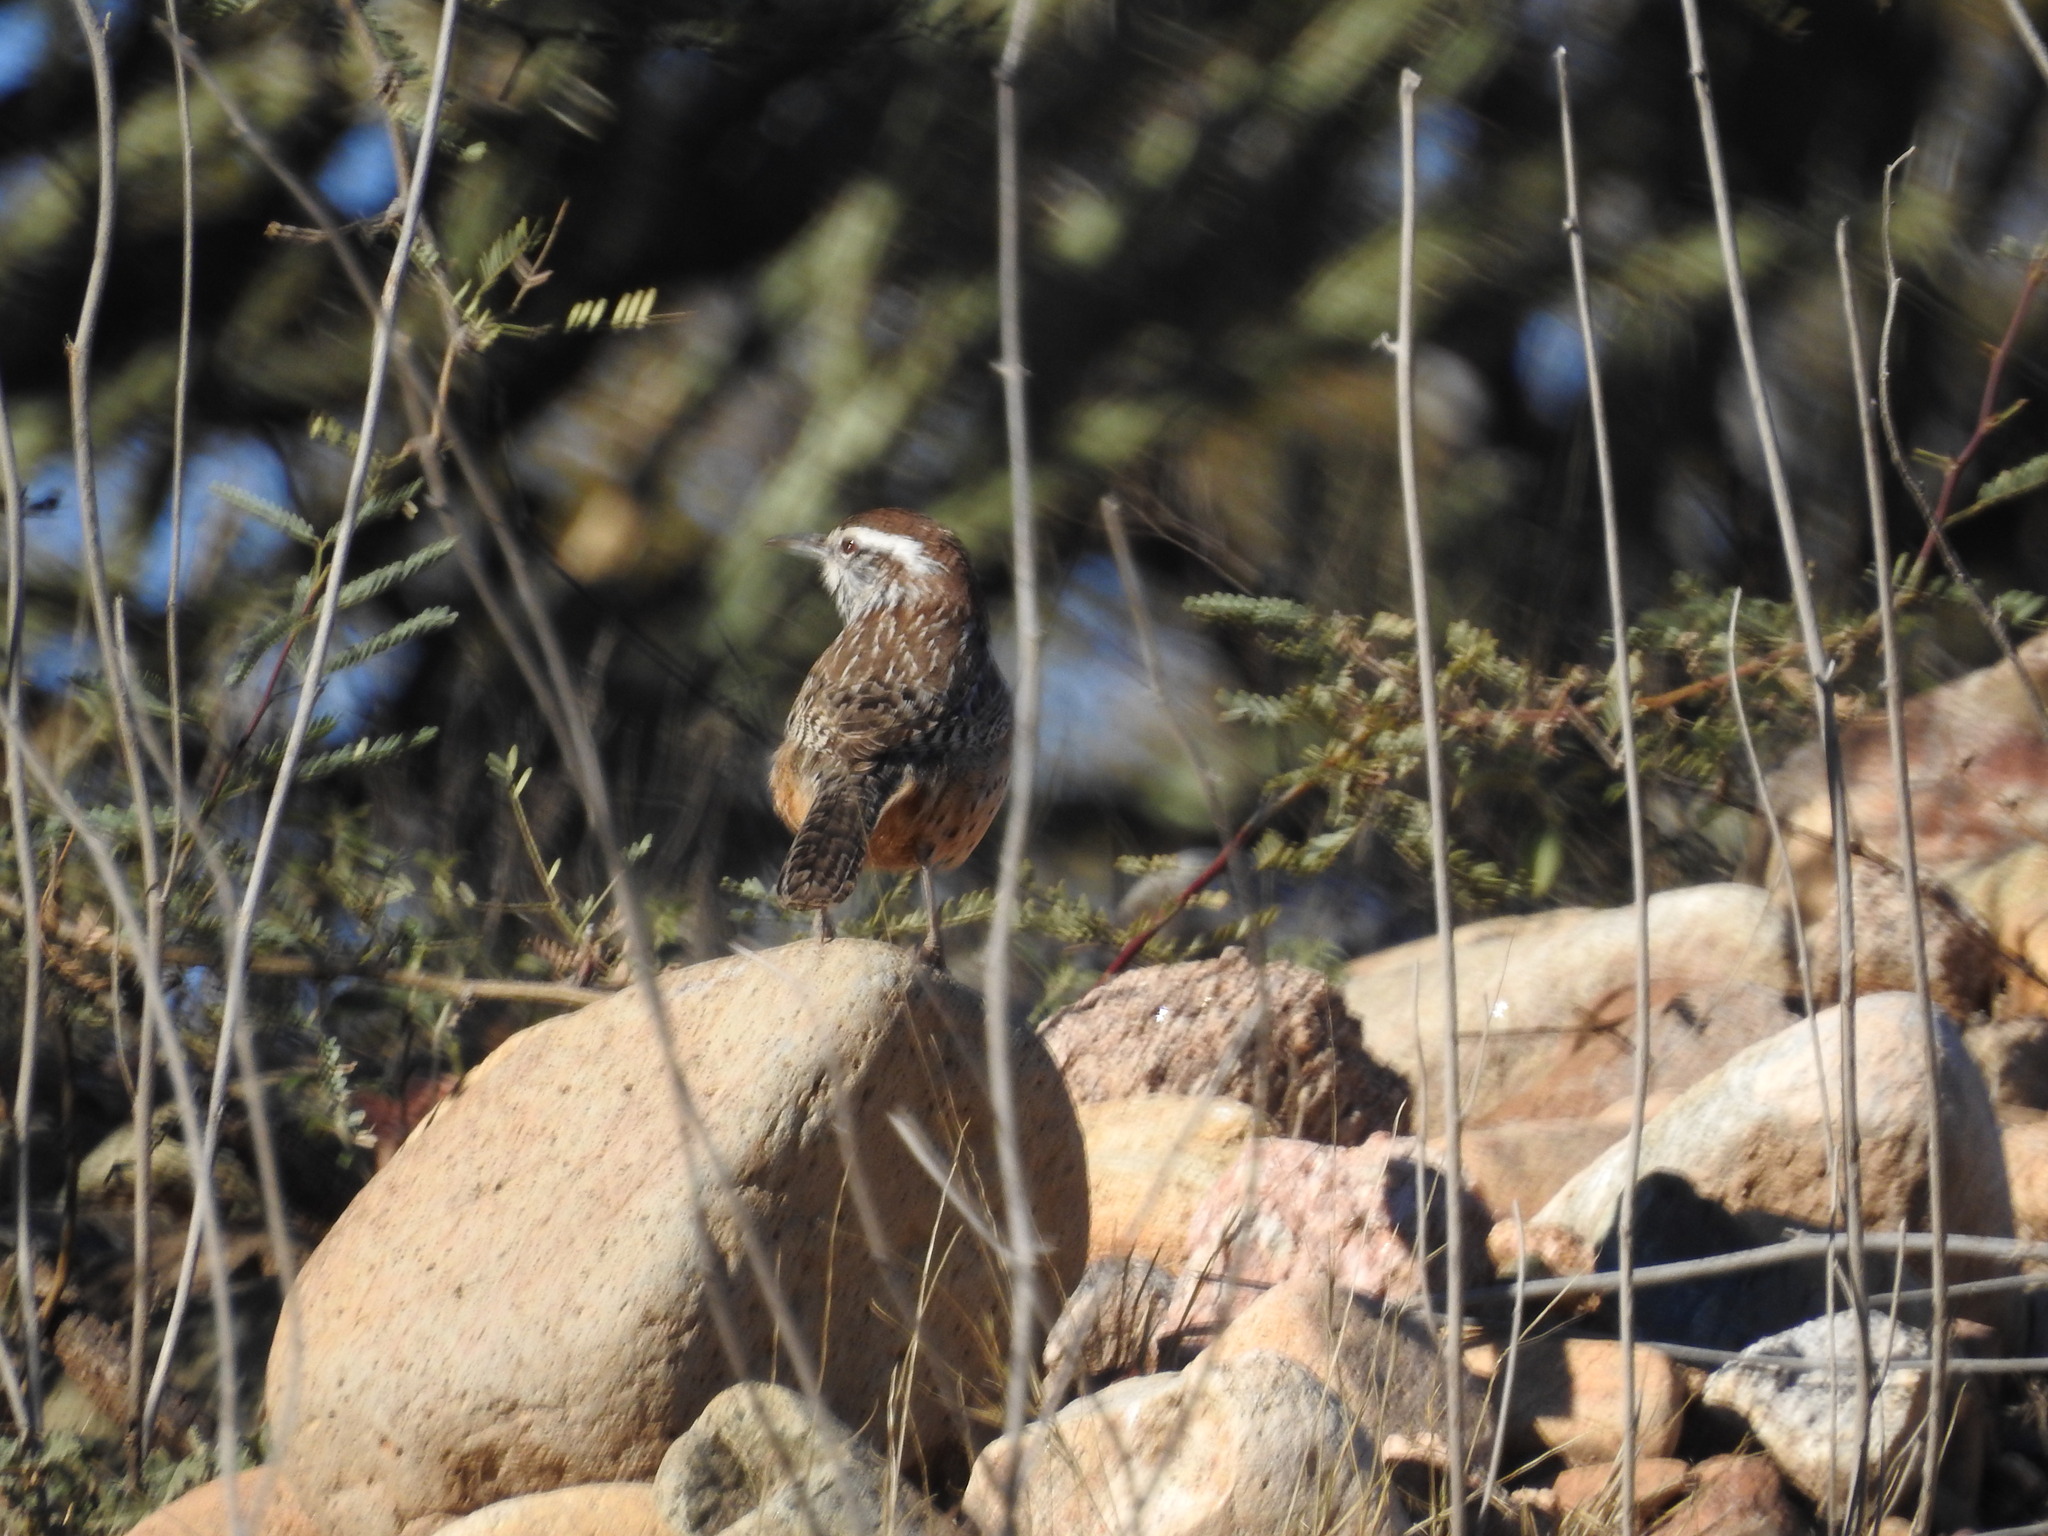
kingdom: Animalia
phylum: Chordata
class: Aves
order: Passeriformes
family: Troglodytidae
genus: Campylorhynchus
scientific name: Campylorhynchus brunneicapillus
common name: Cactus wren
